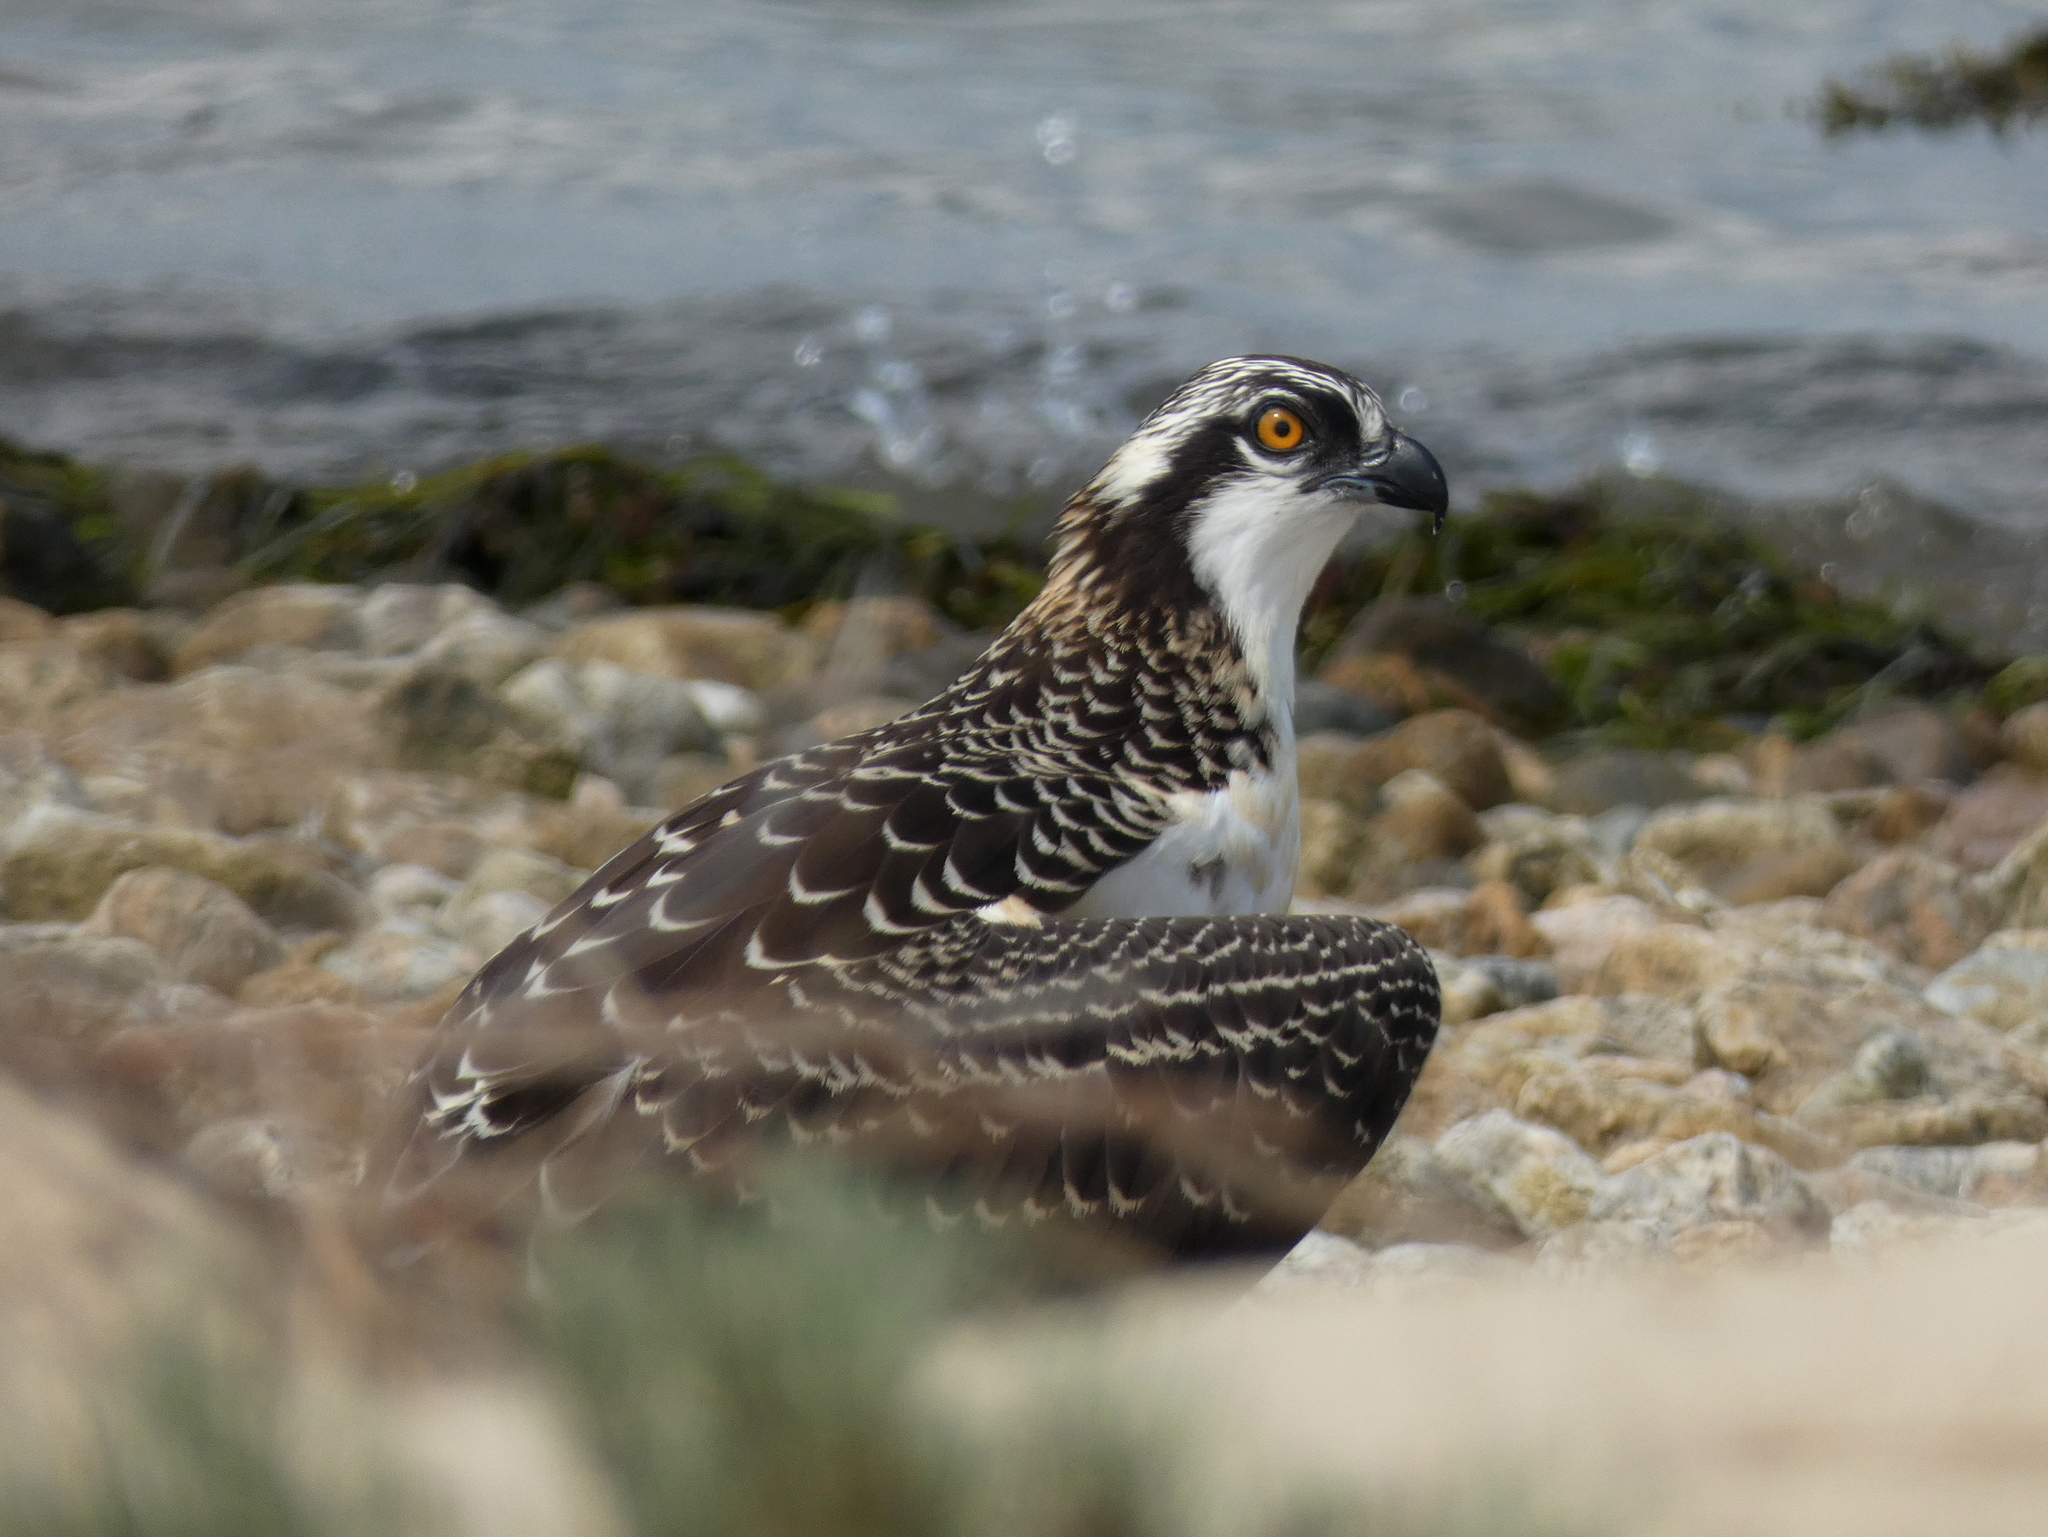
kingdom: Animalia
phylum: Chordata
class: Aves
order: Accipitriformes
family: Pandionidae
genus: Pandion
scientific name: Pandion haliaetus
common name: Osprey
